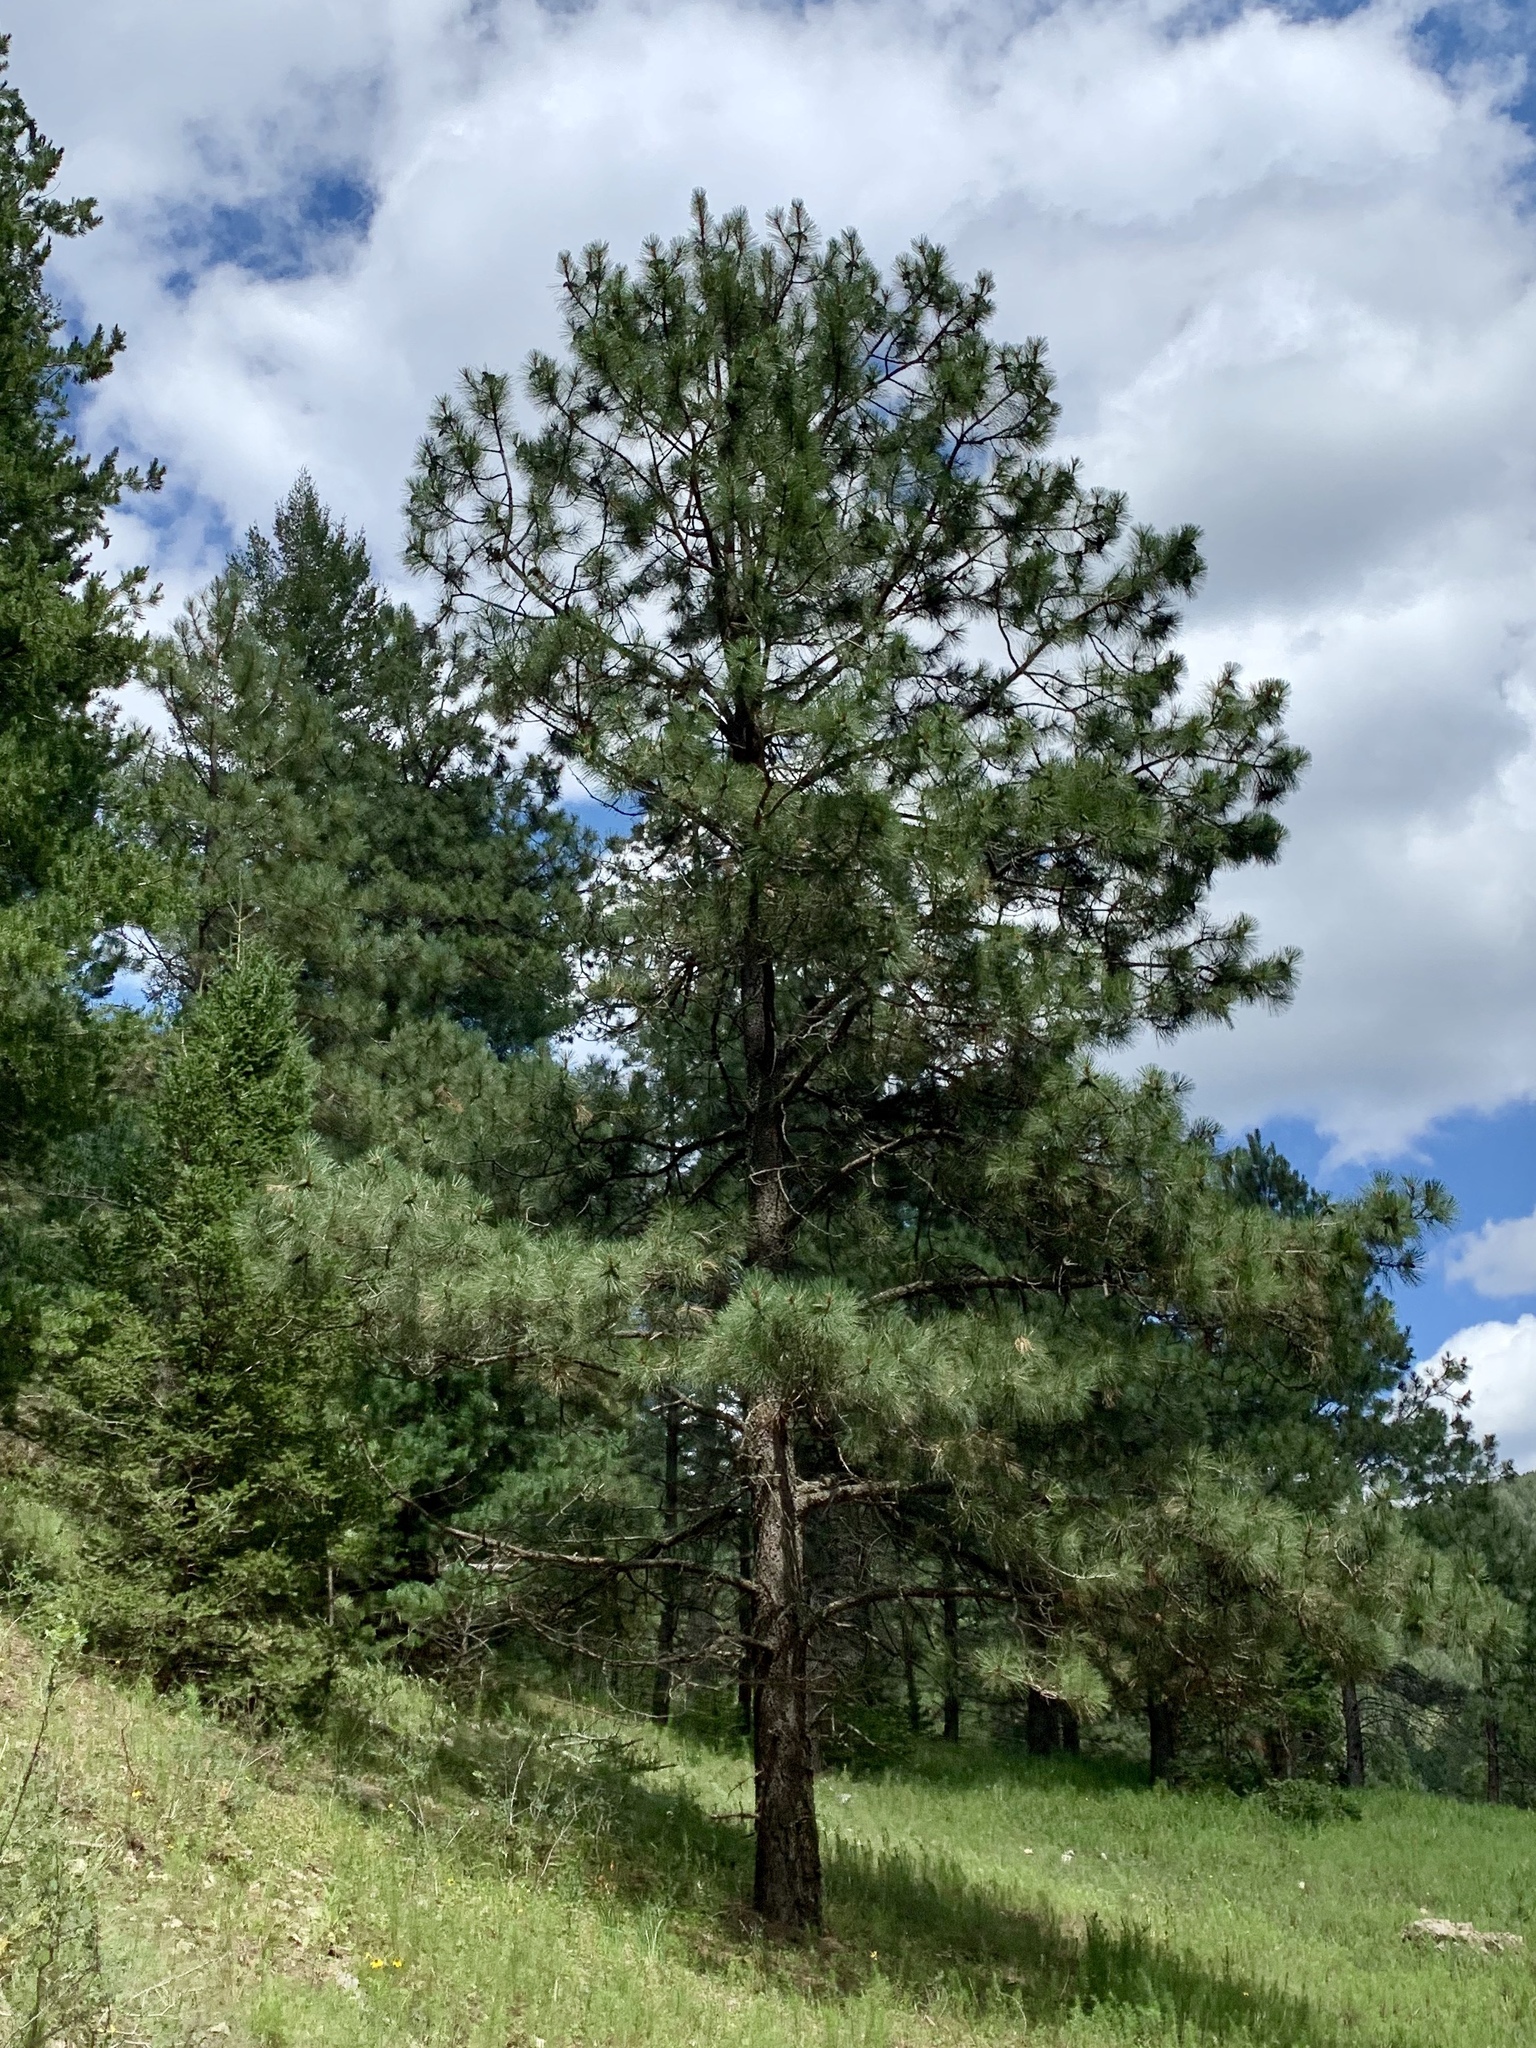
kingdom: Plantae
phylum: Tracheophyta
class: Pinopsida
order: Pinales
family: Pinaceae
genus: Pinus
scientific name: Pinus ponderosa
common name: Western yellow-pine
